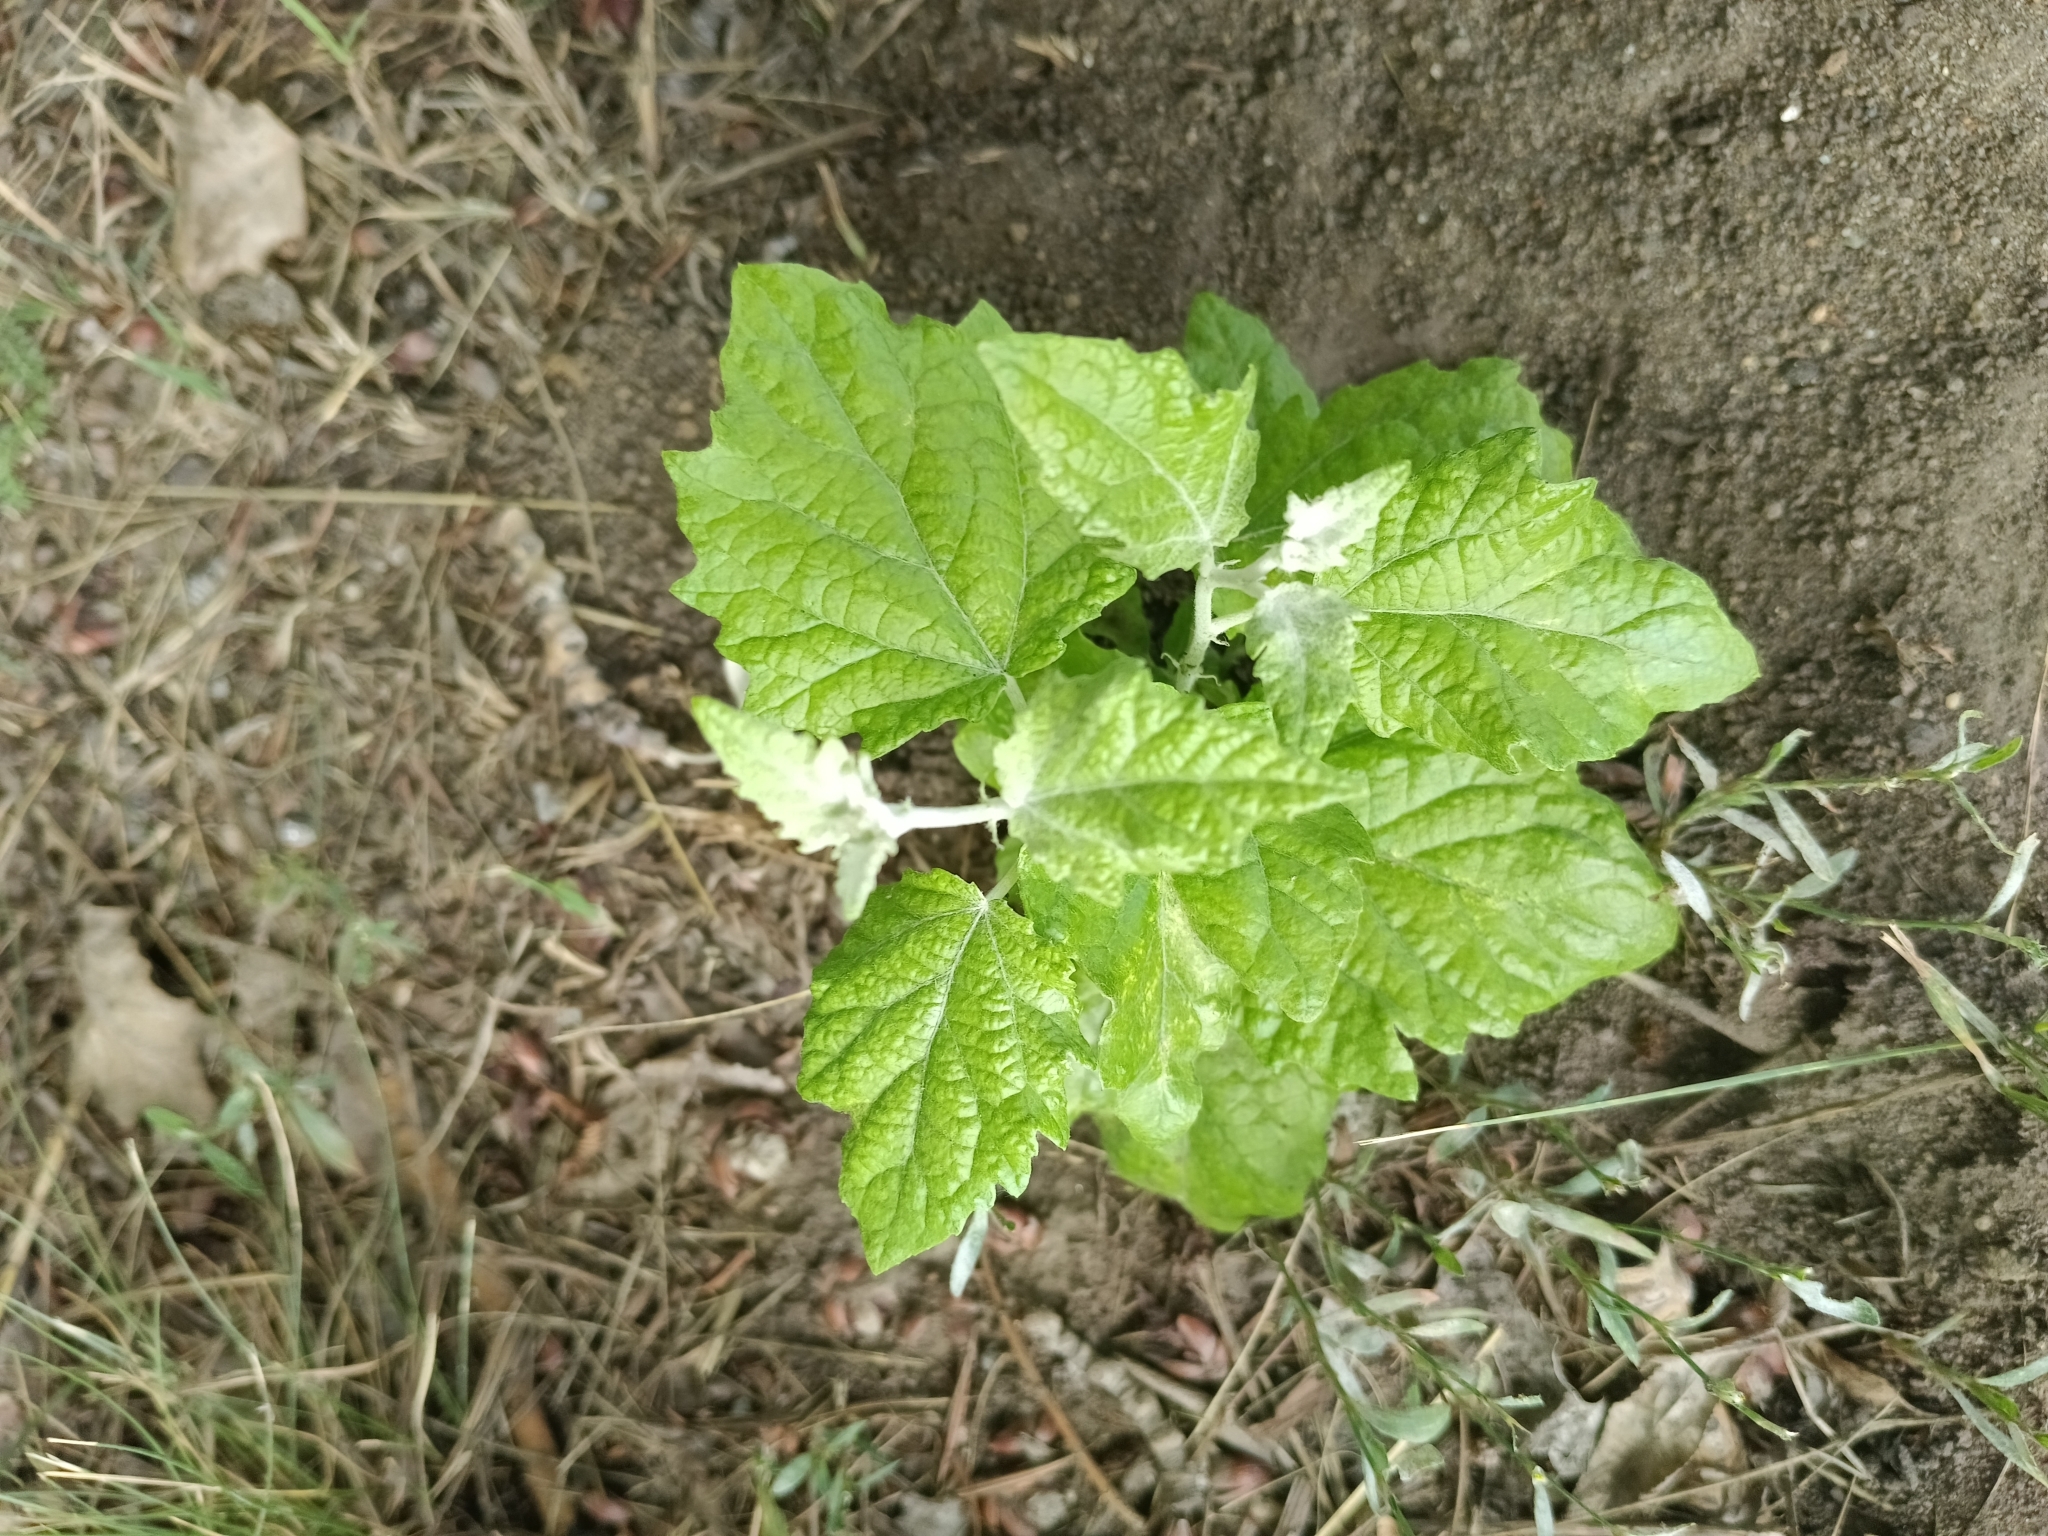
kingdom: Plantae
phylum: Tracheophyta
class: Magnoliopsida
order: Malpighiales
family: Salicaceae
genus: Populus
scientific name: Populus alba
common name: White poplar
